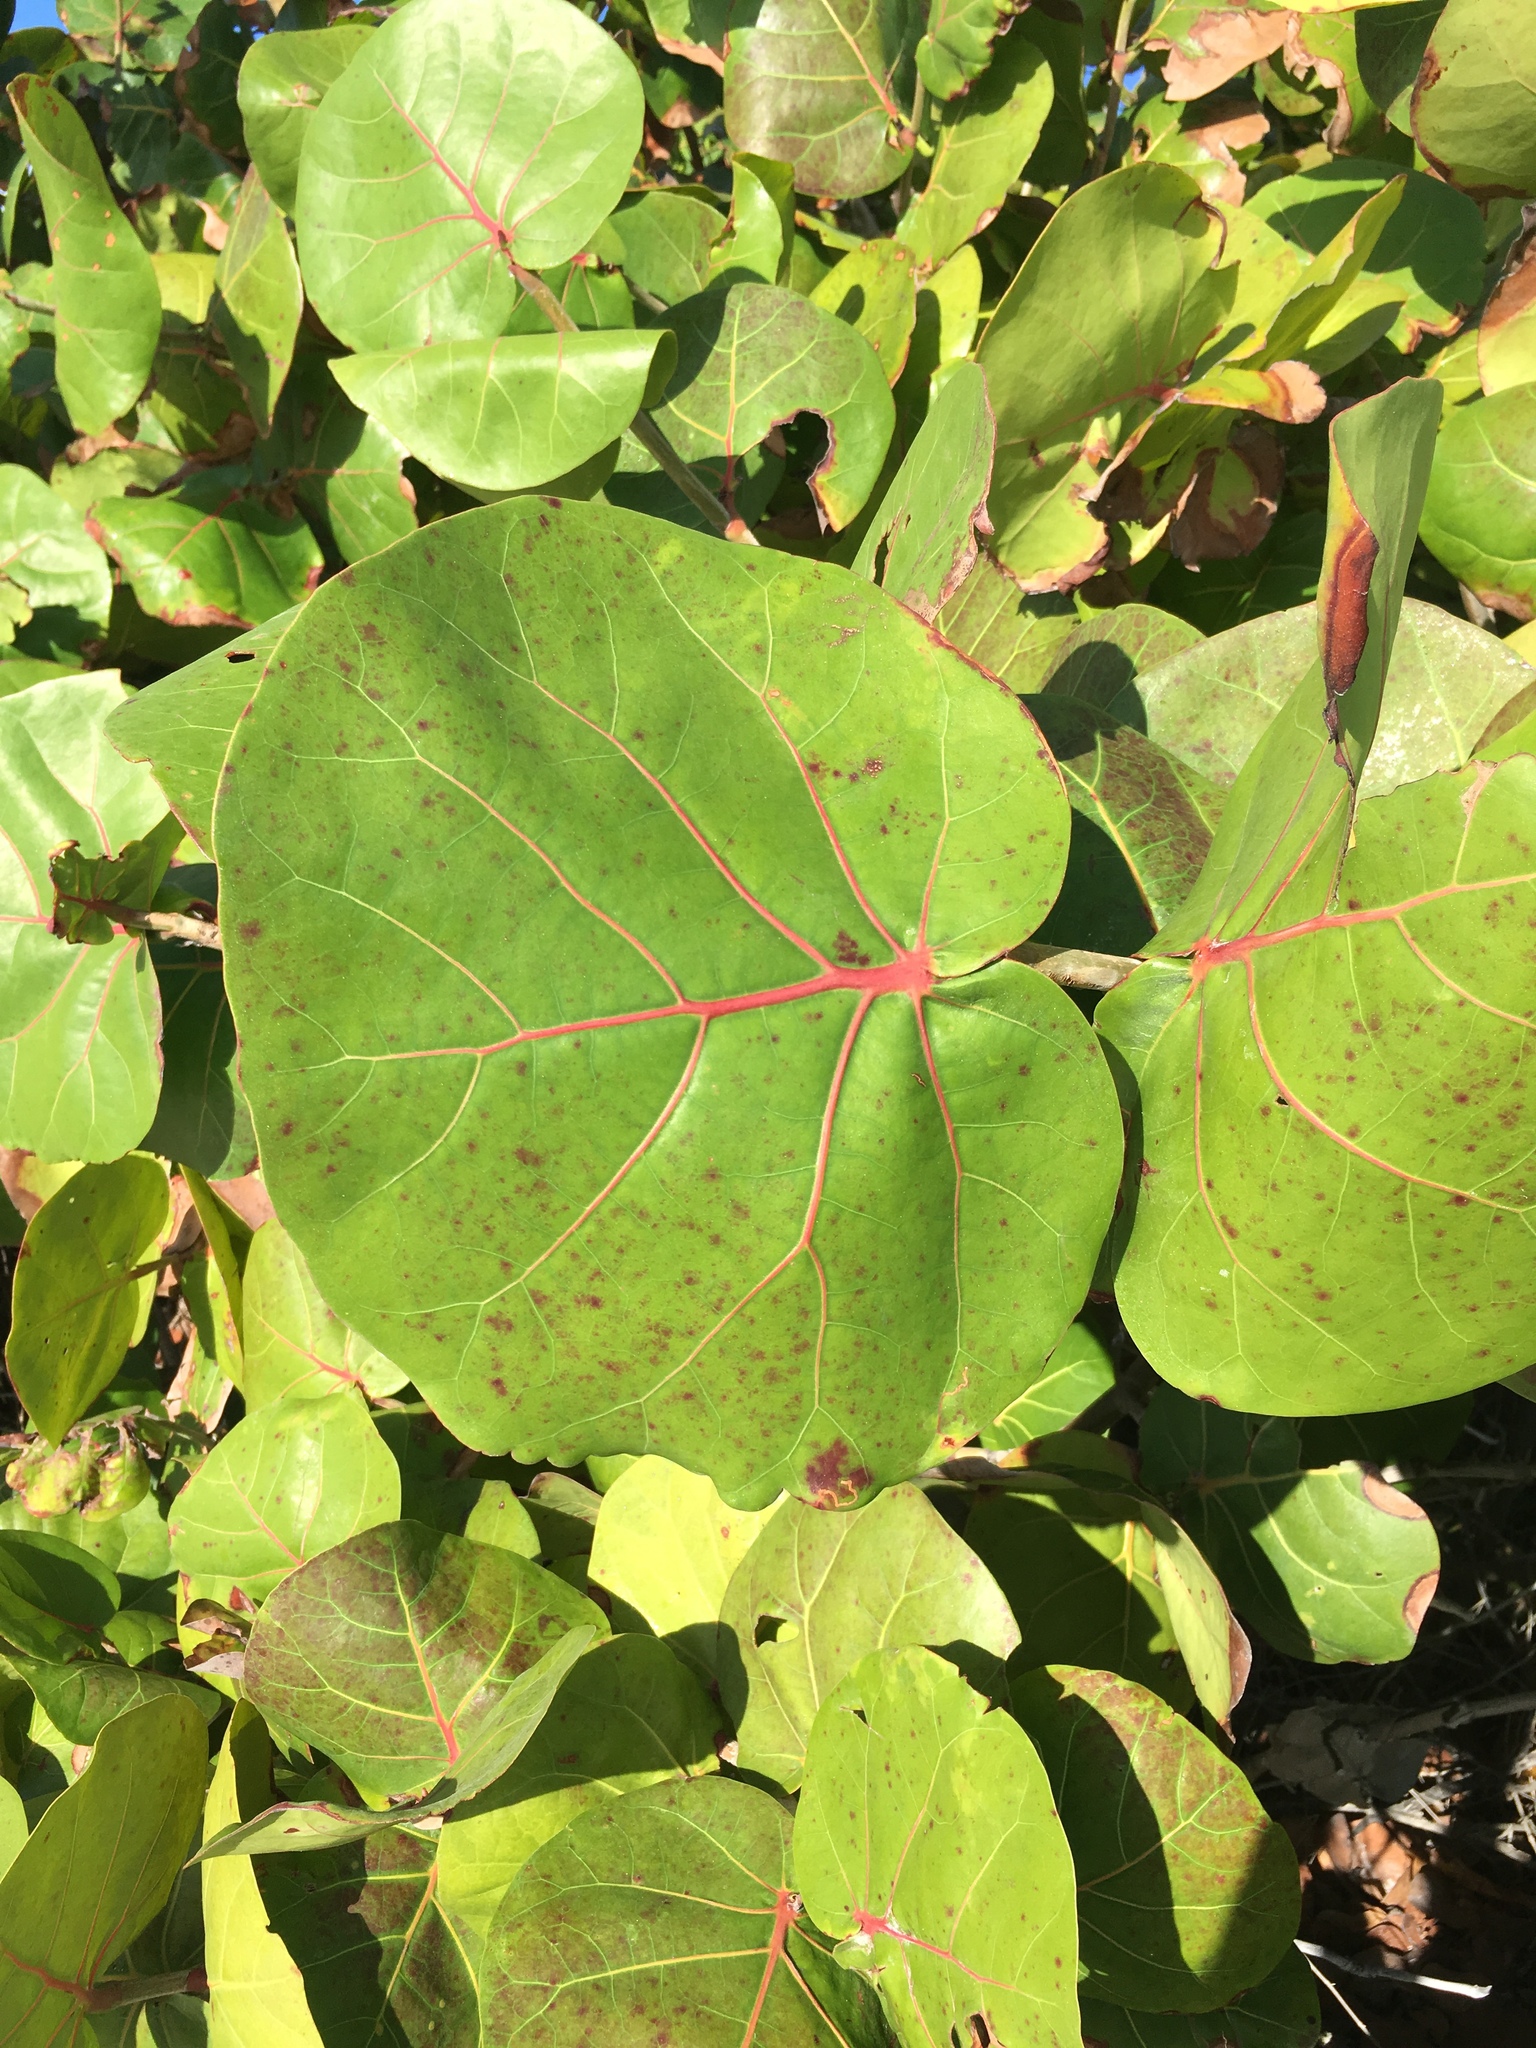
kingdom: Plantae
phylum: Tracheophyta
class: Magnoliopsida
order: Caryophyllales
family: Polygonaceae
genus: Coccoloba
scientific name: Coccoloba uvifera
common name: Seagrape
